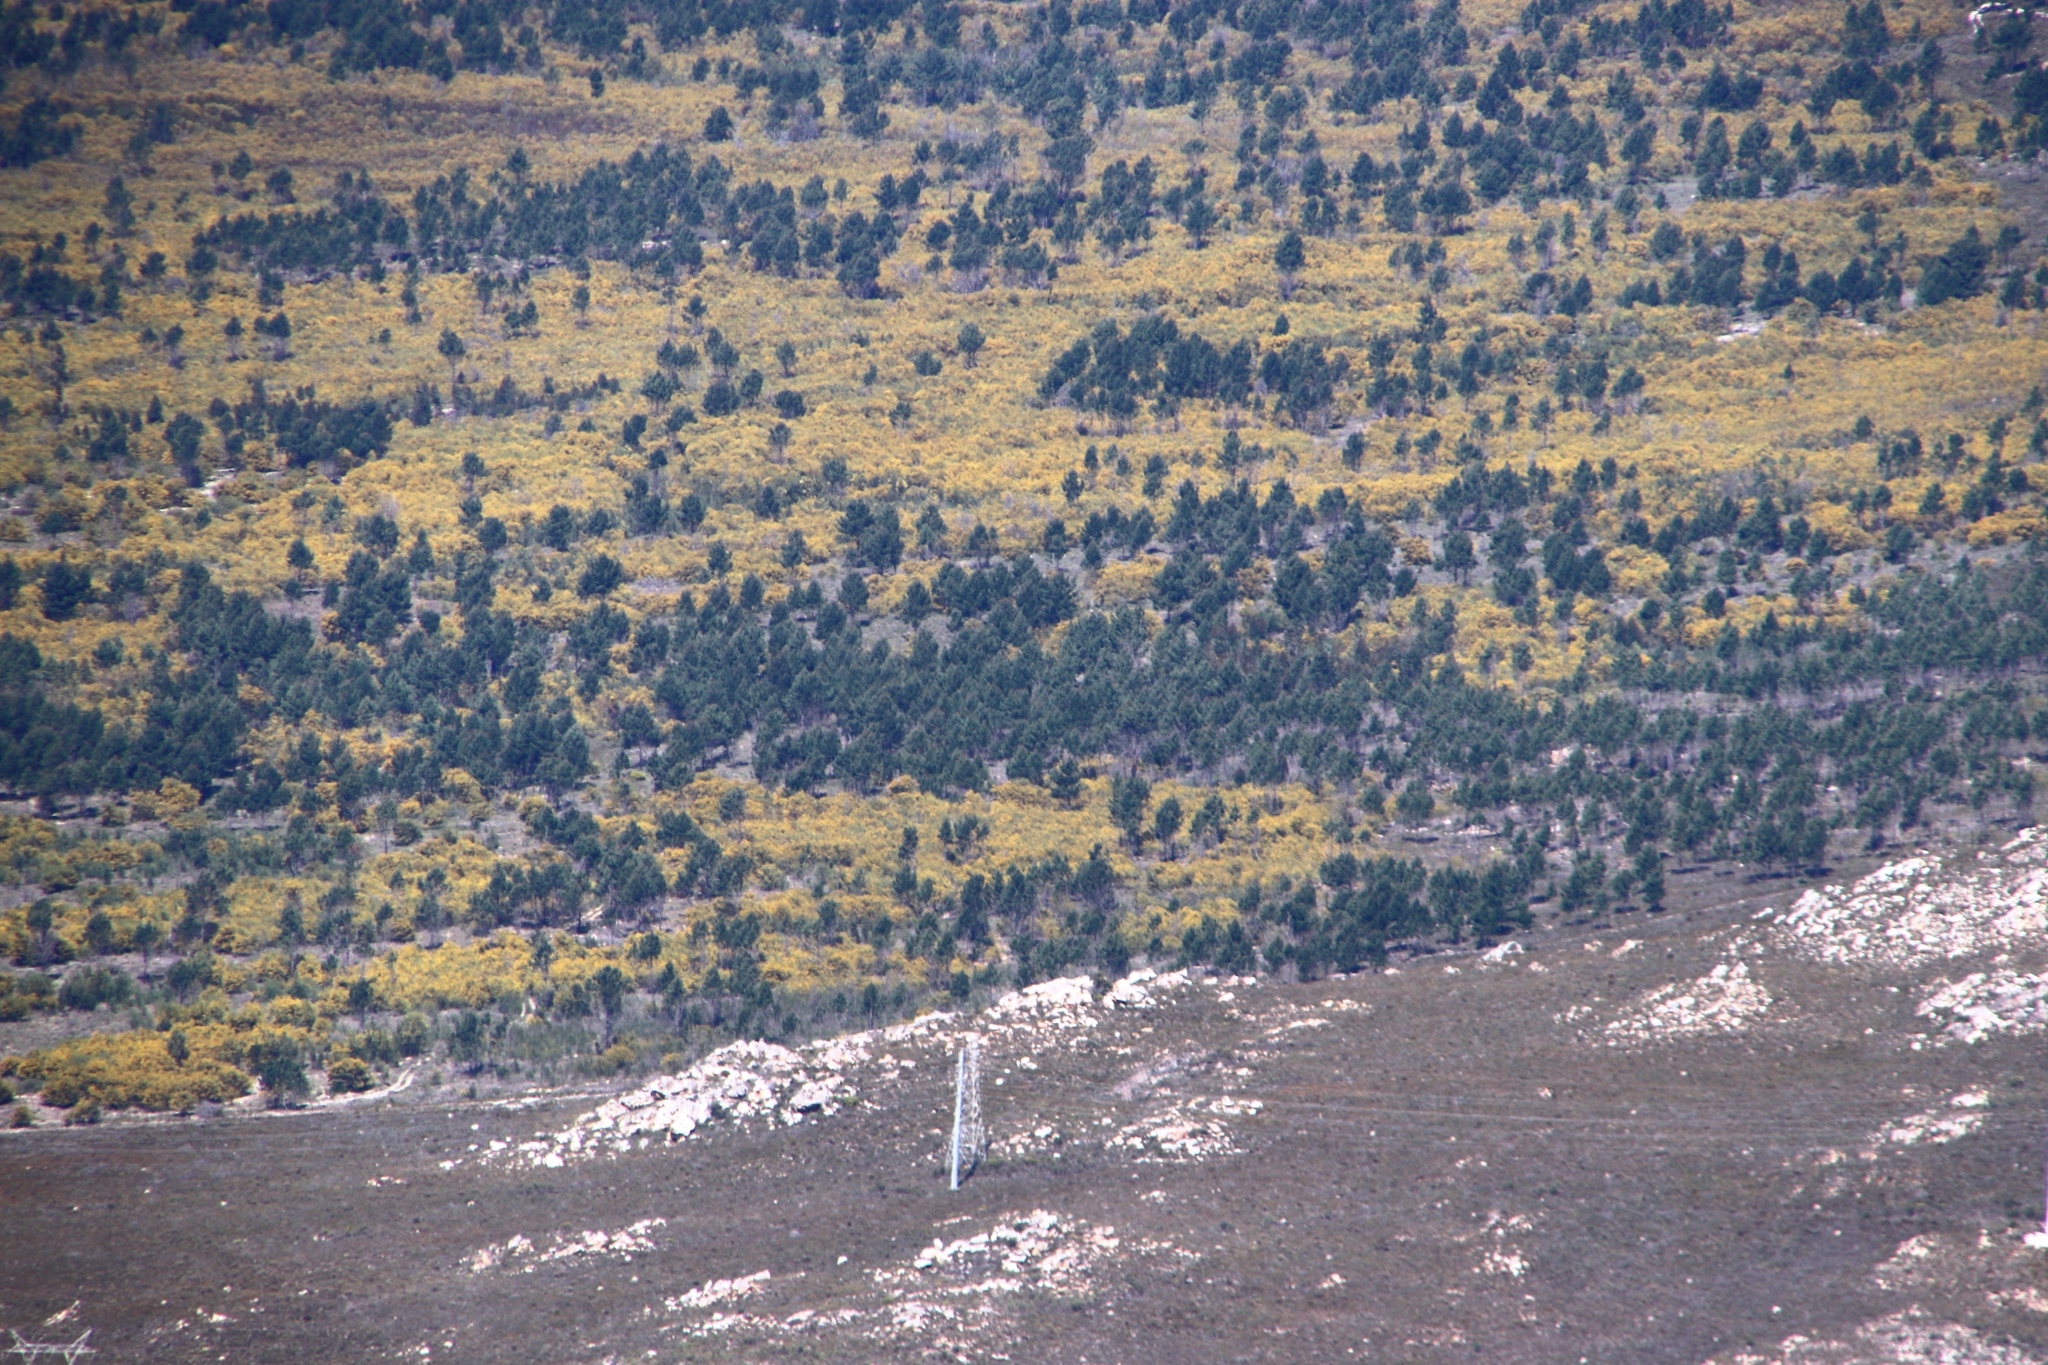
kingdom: Plantae
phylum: Tracheophyta
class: Pinopsida
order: Pinales
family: Pinaceae
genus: Pinus
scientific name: Pinus pinaster
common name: Maritime pine
